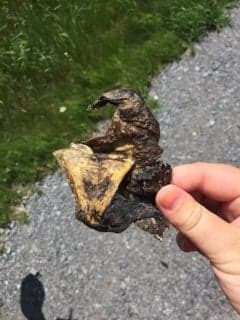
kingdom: Animalia
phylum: Chordata
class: Testudines
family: Chelydridae
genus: Chelydra
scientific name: Chelydra serpentina
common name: Common snapping turtle
